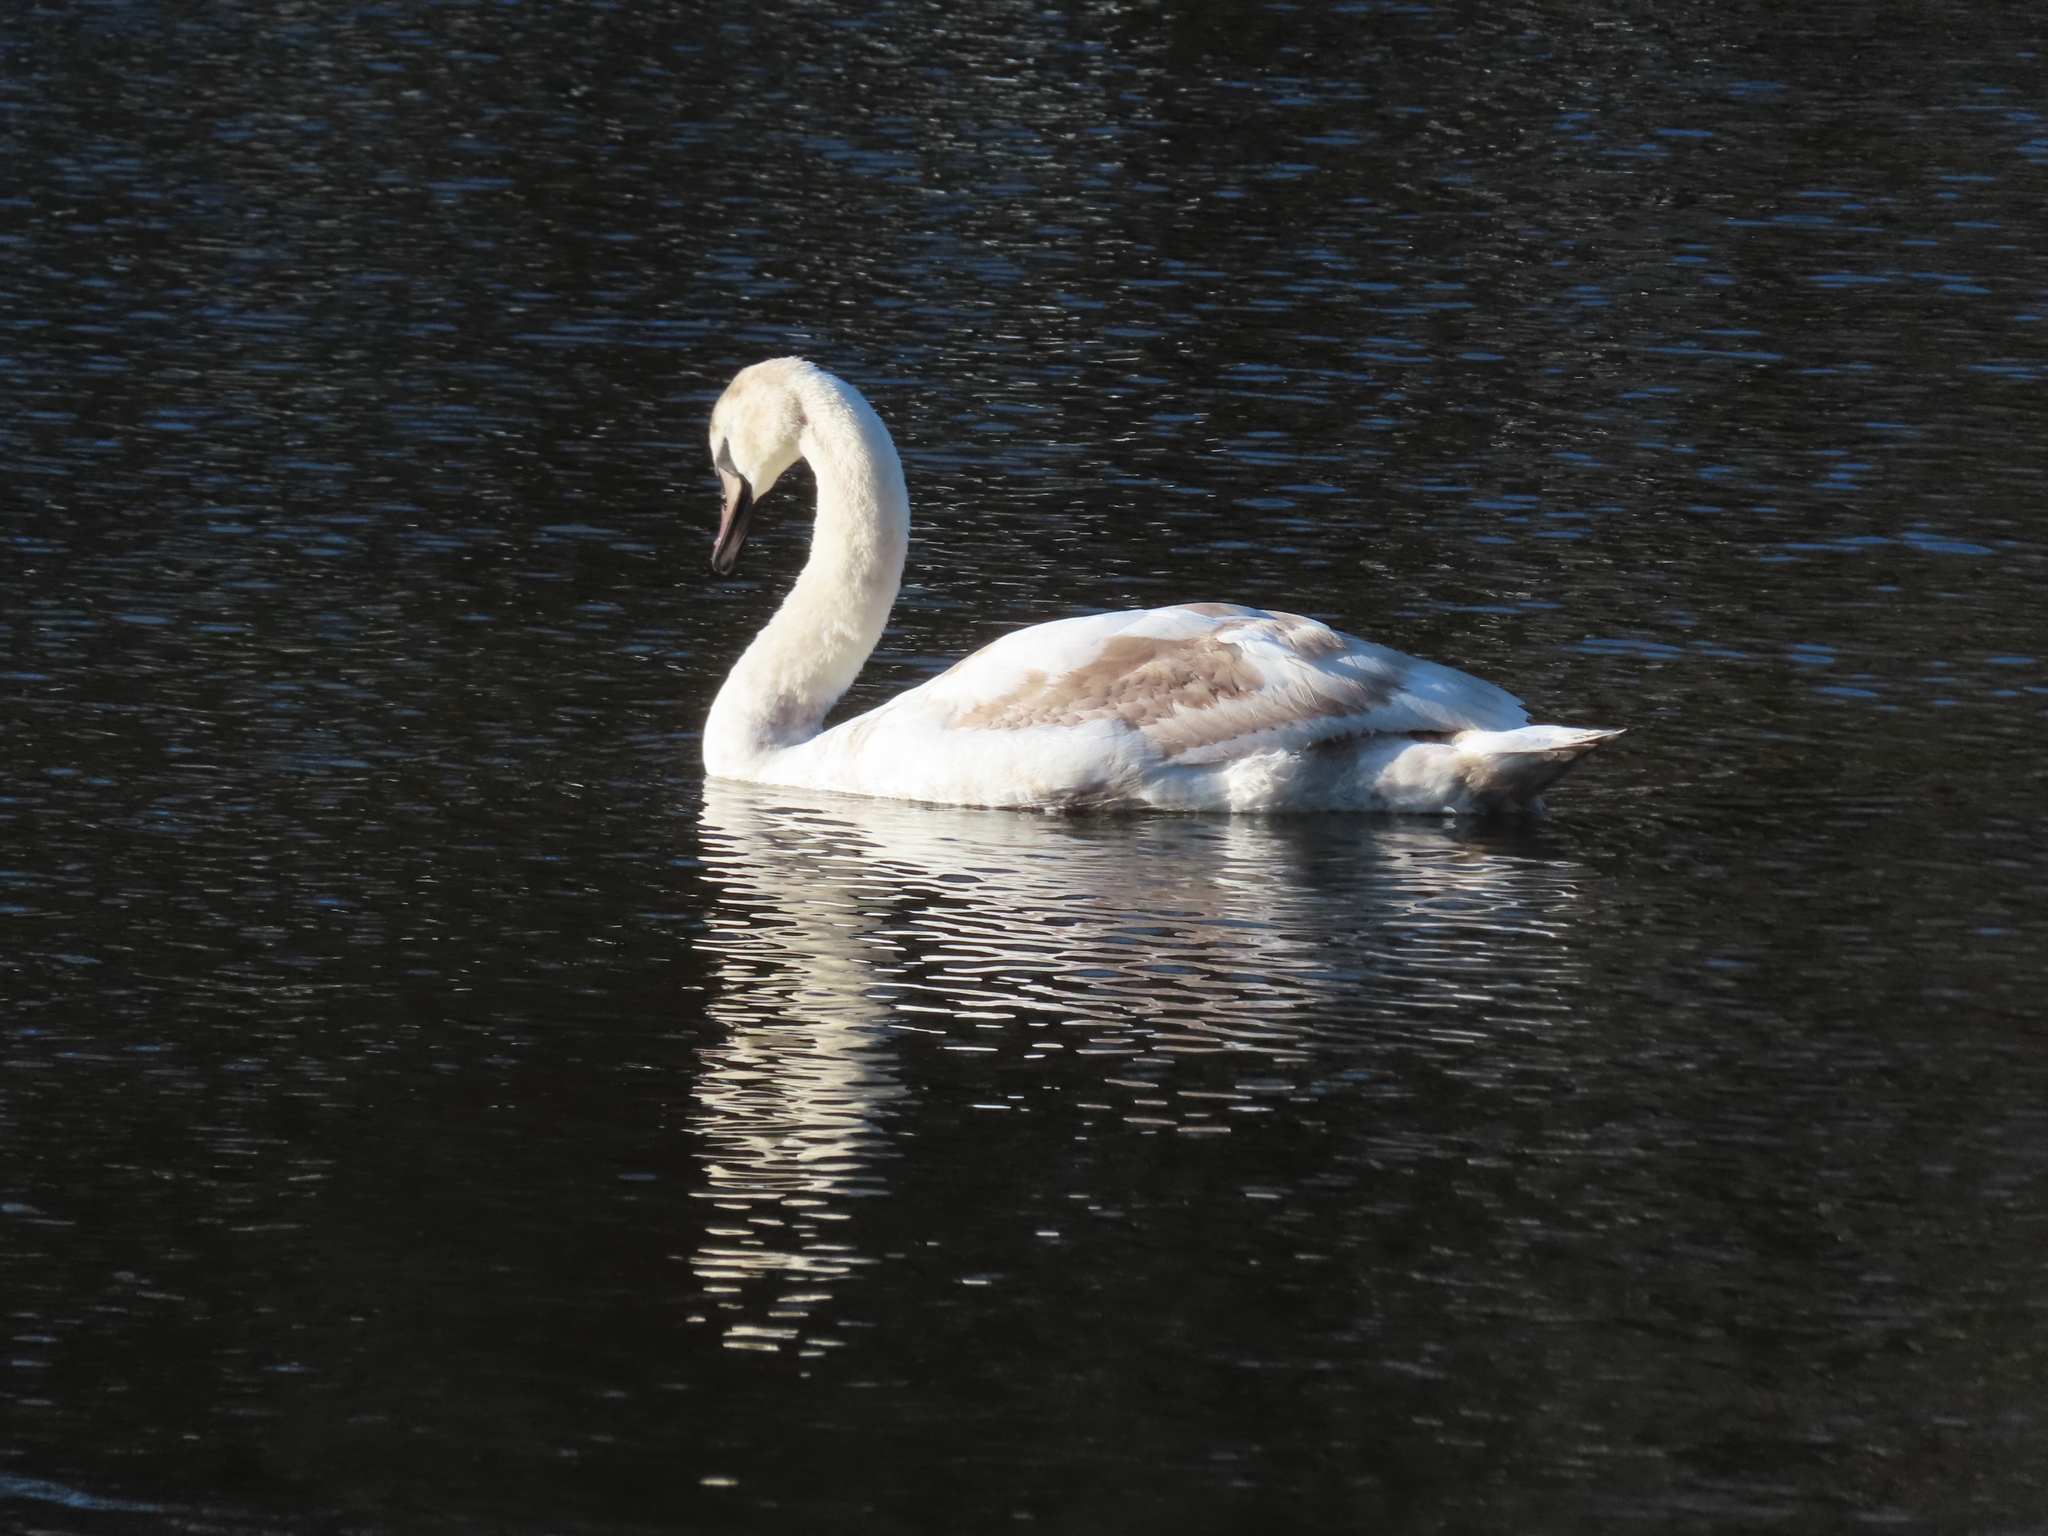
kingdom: Animalia
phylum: Chordata
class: Aves
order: Anseriformes
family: Anatidae
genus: Cygnus
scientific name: Cygnus olor
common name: Mute swan
